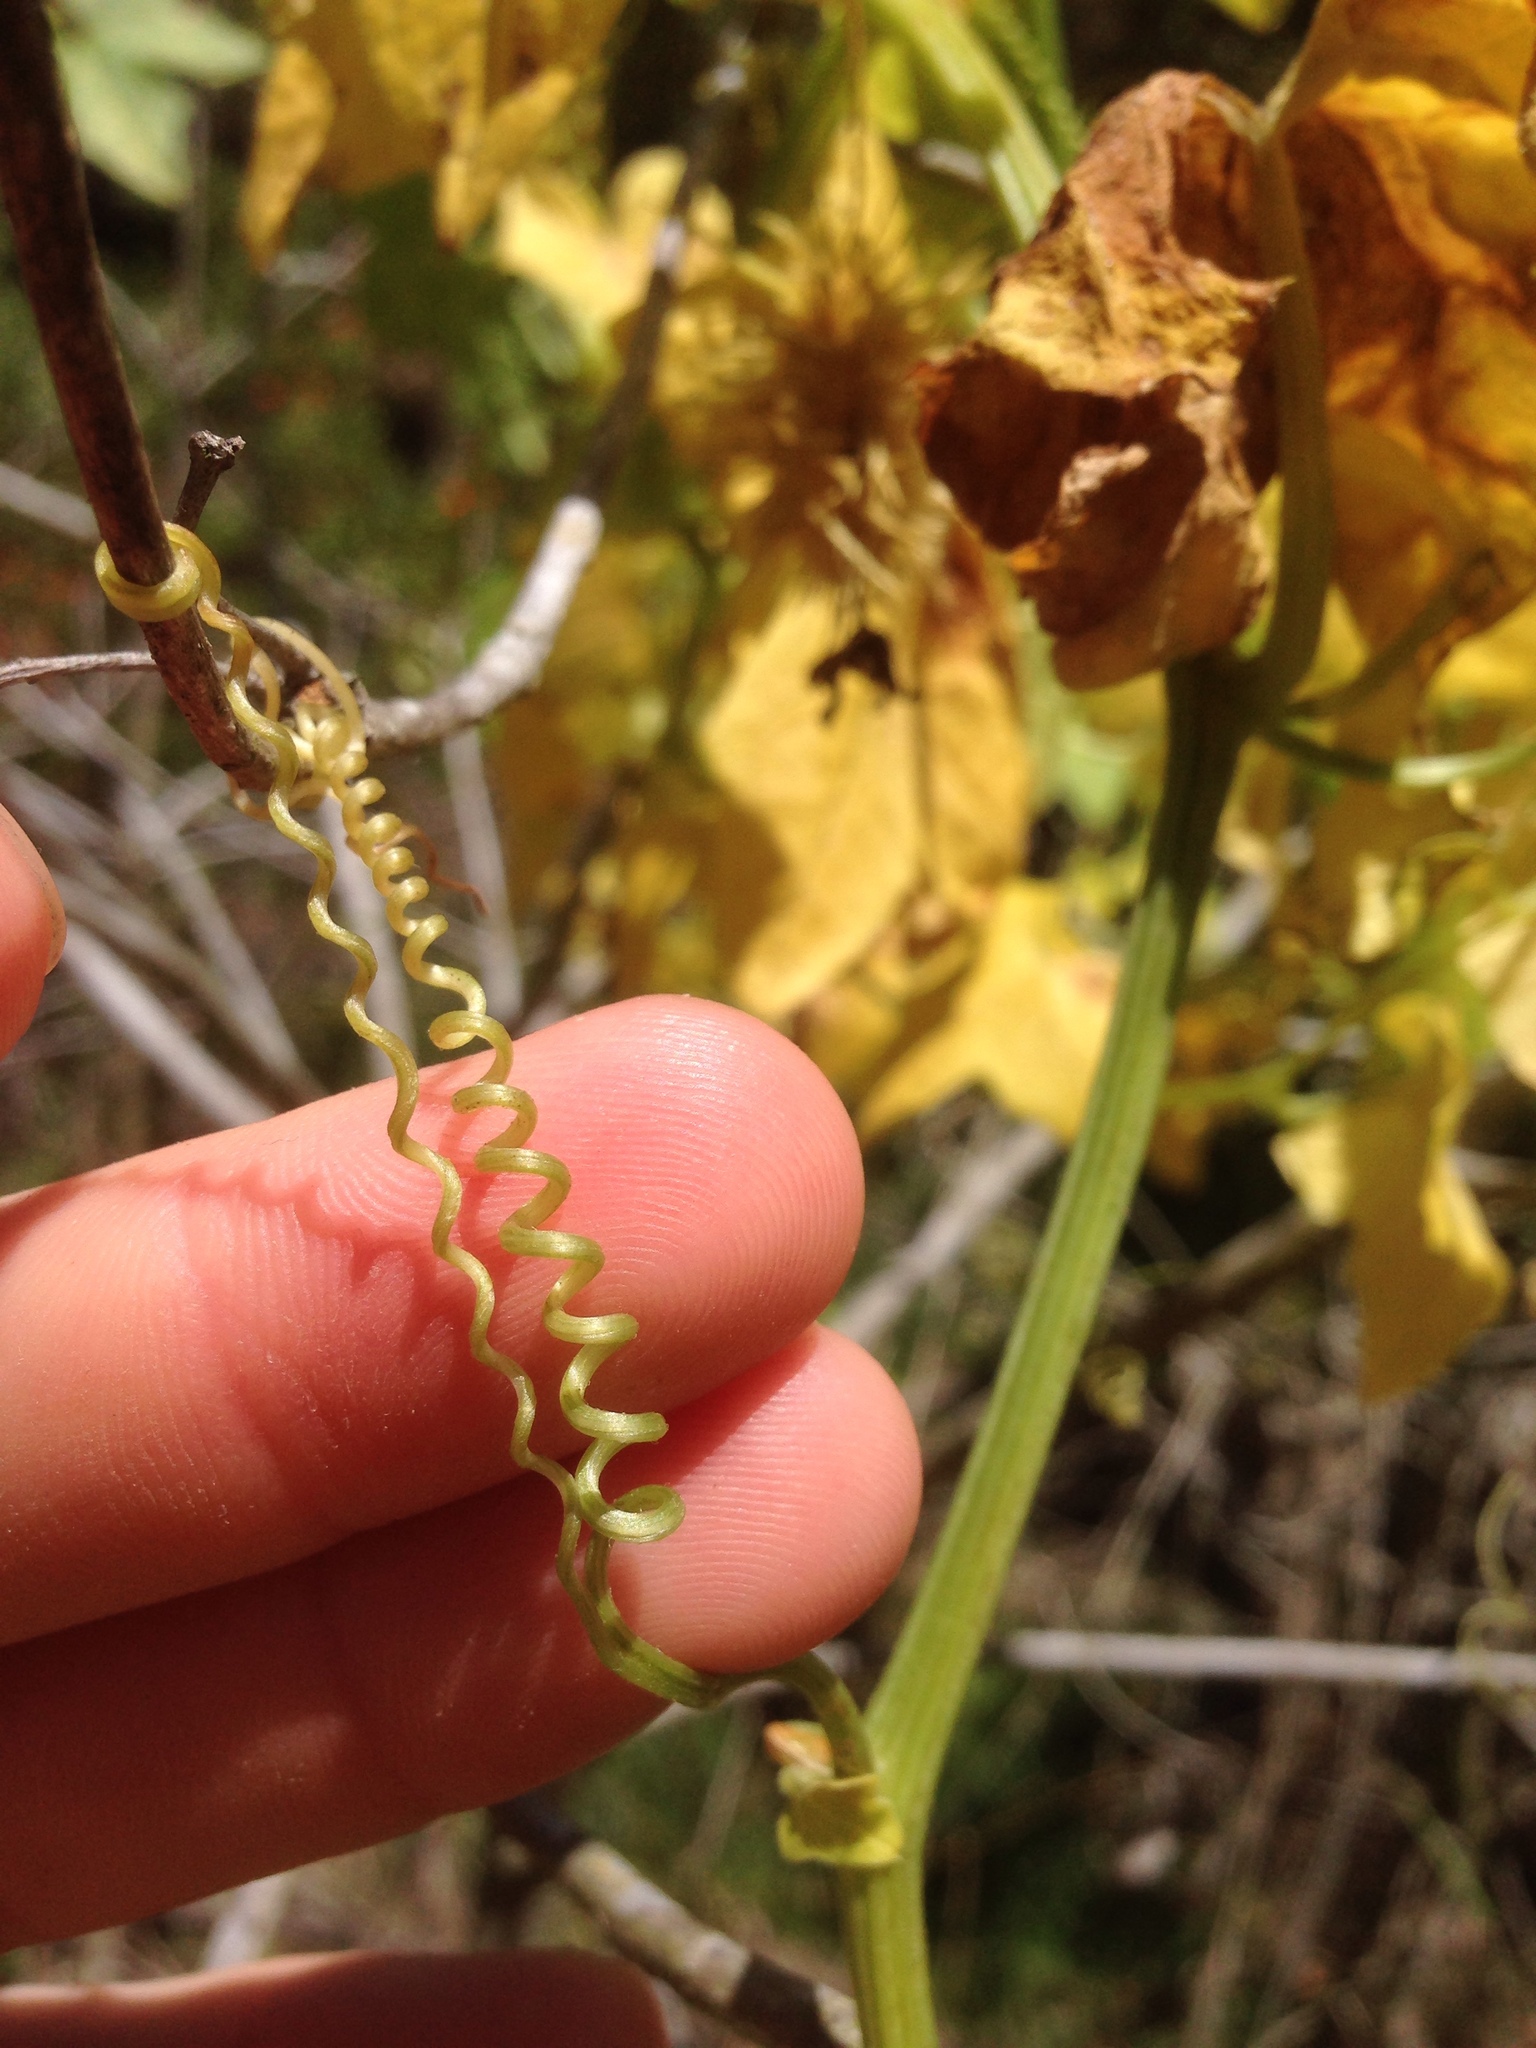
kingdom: Plantae
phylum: Tracheophyta
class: Magnoliopsida
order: Cucurbitales
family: Cucurbitaceae
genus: Marah
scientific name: Marah macrocarpa
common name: Cucamonga manroot
